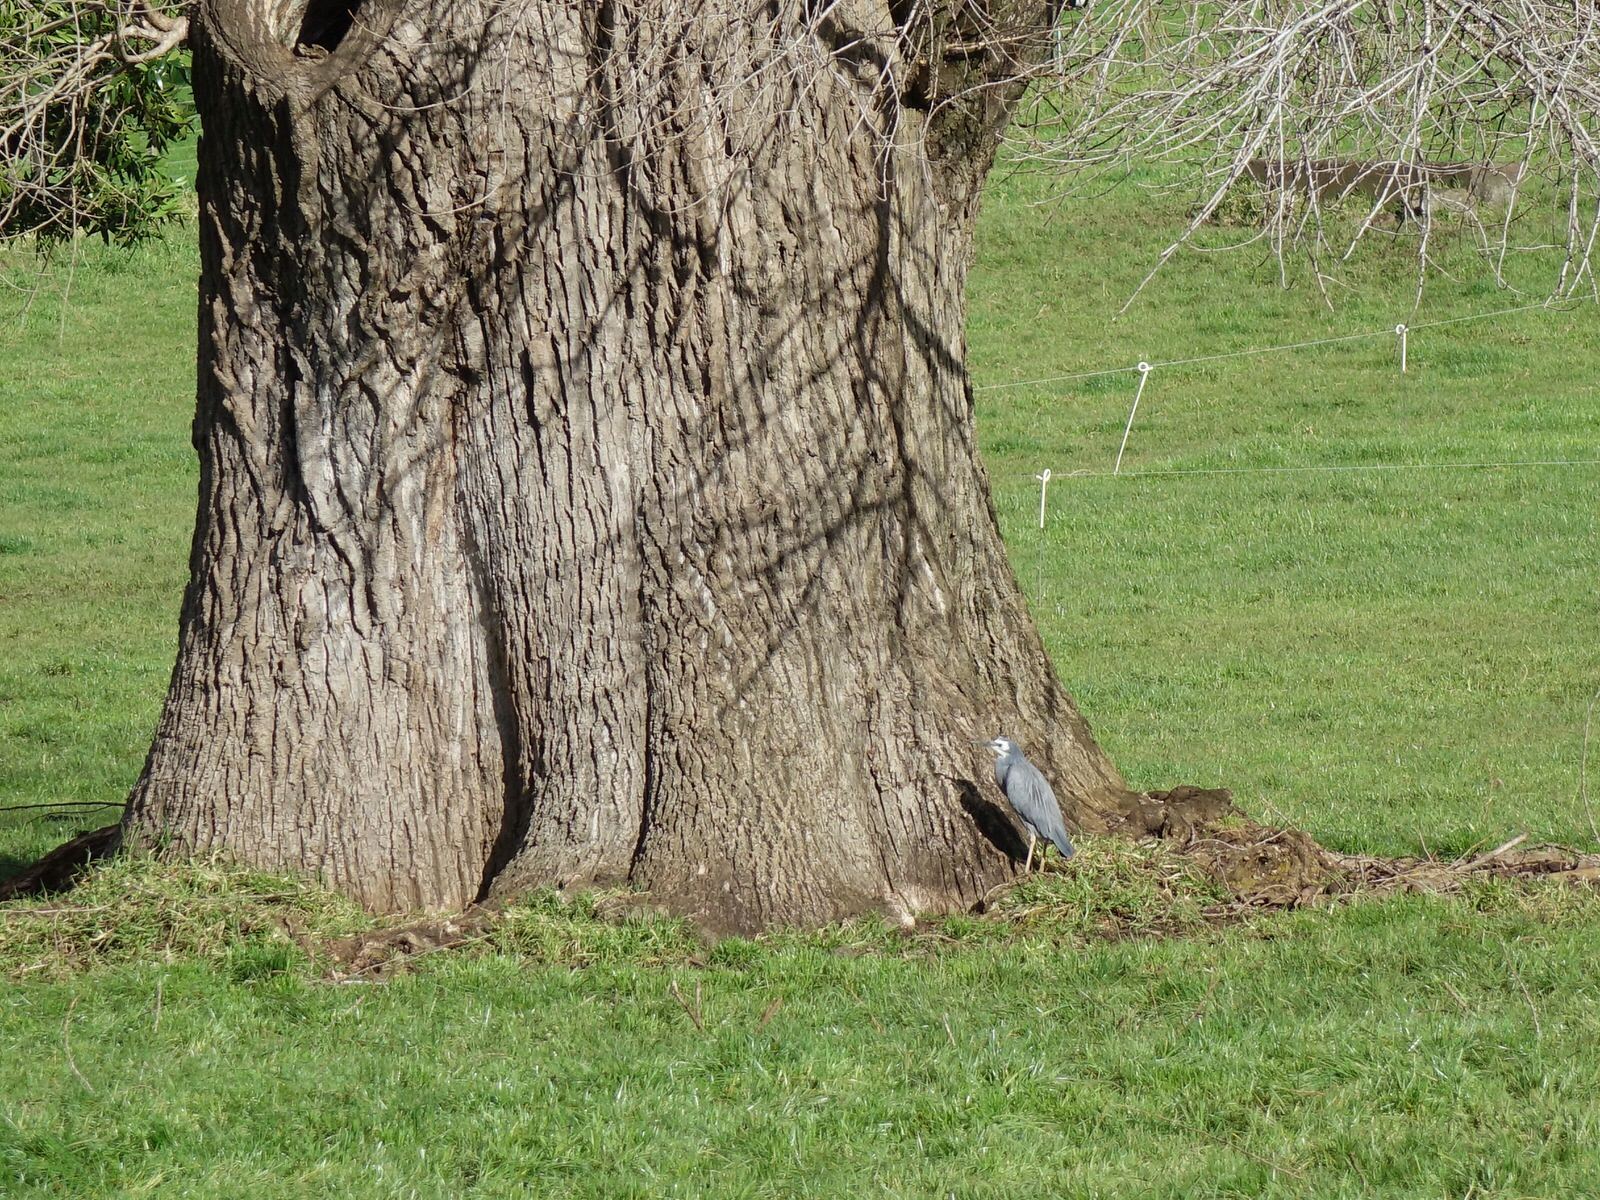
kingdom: Animalia
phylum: Chordata
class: Aves
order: Pelecaniformes
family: Ardeidae
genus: Egretta
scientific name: Egretta novaehollandiae
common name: White-faced heron
